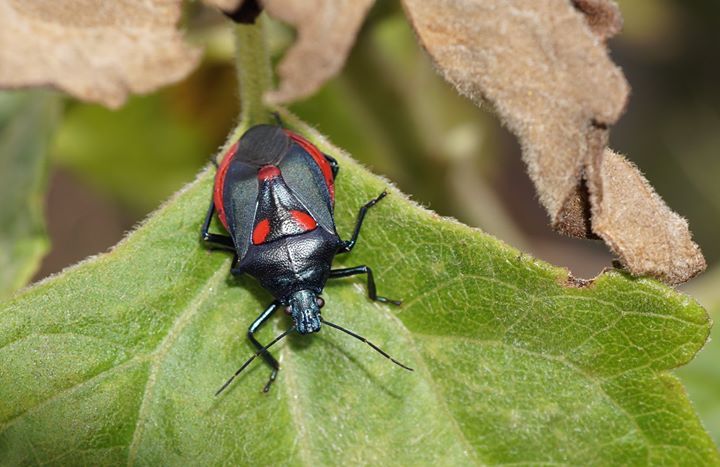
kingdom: Animalia
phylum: Arthropoda
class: Insecta
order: Hemiptera
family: Pentatomidae
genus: Euthyrhynchus
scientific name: Euthyrhynchus floridanus
